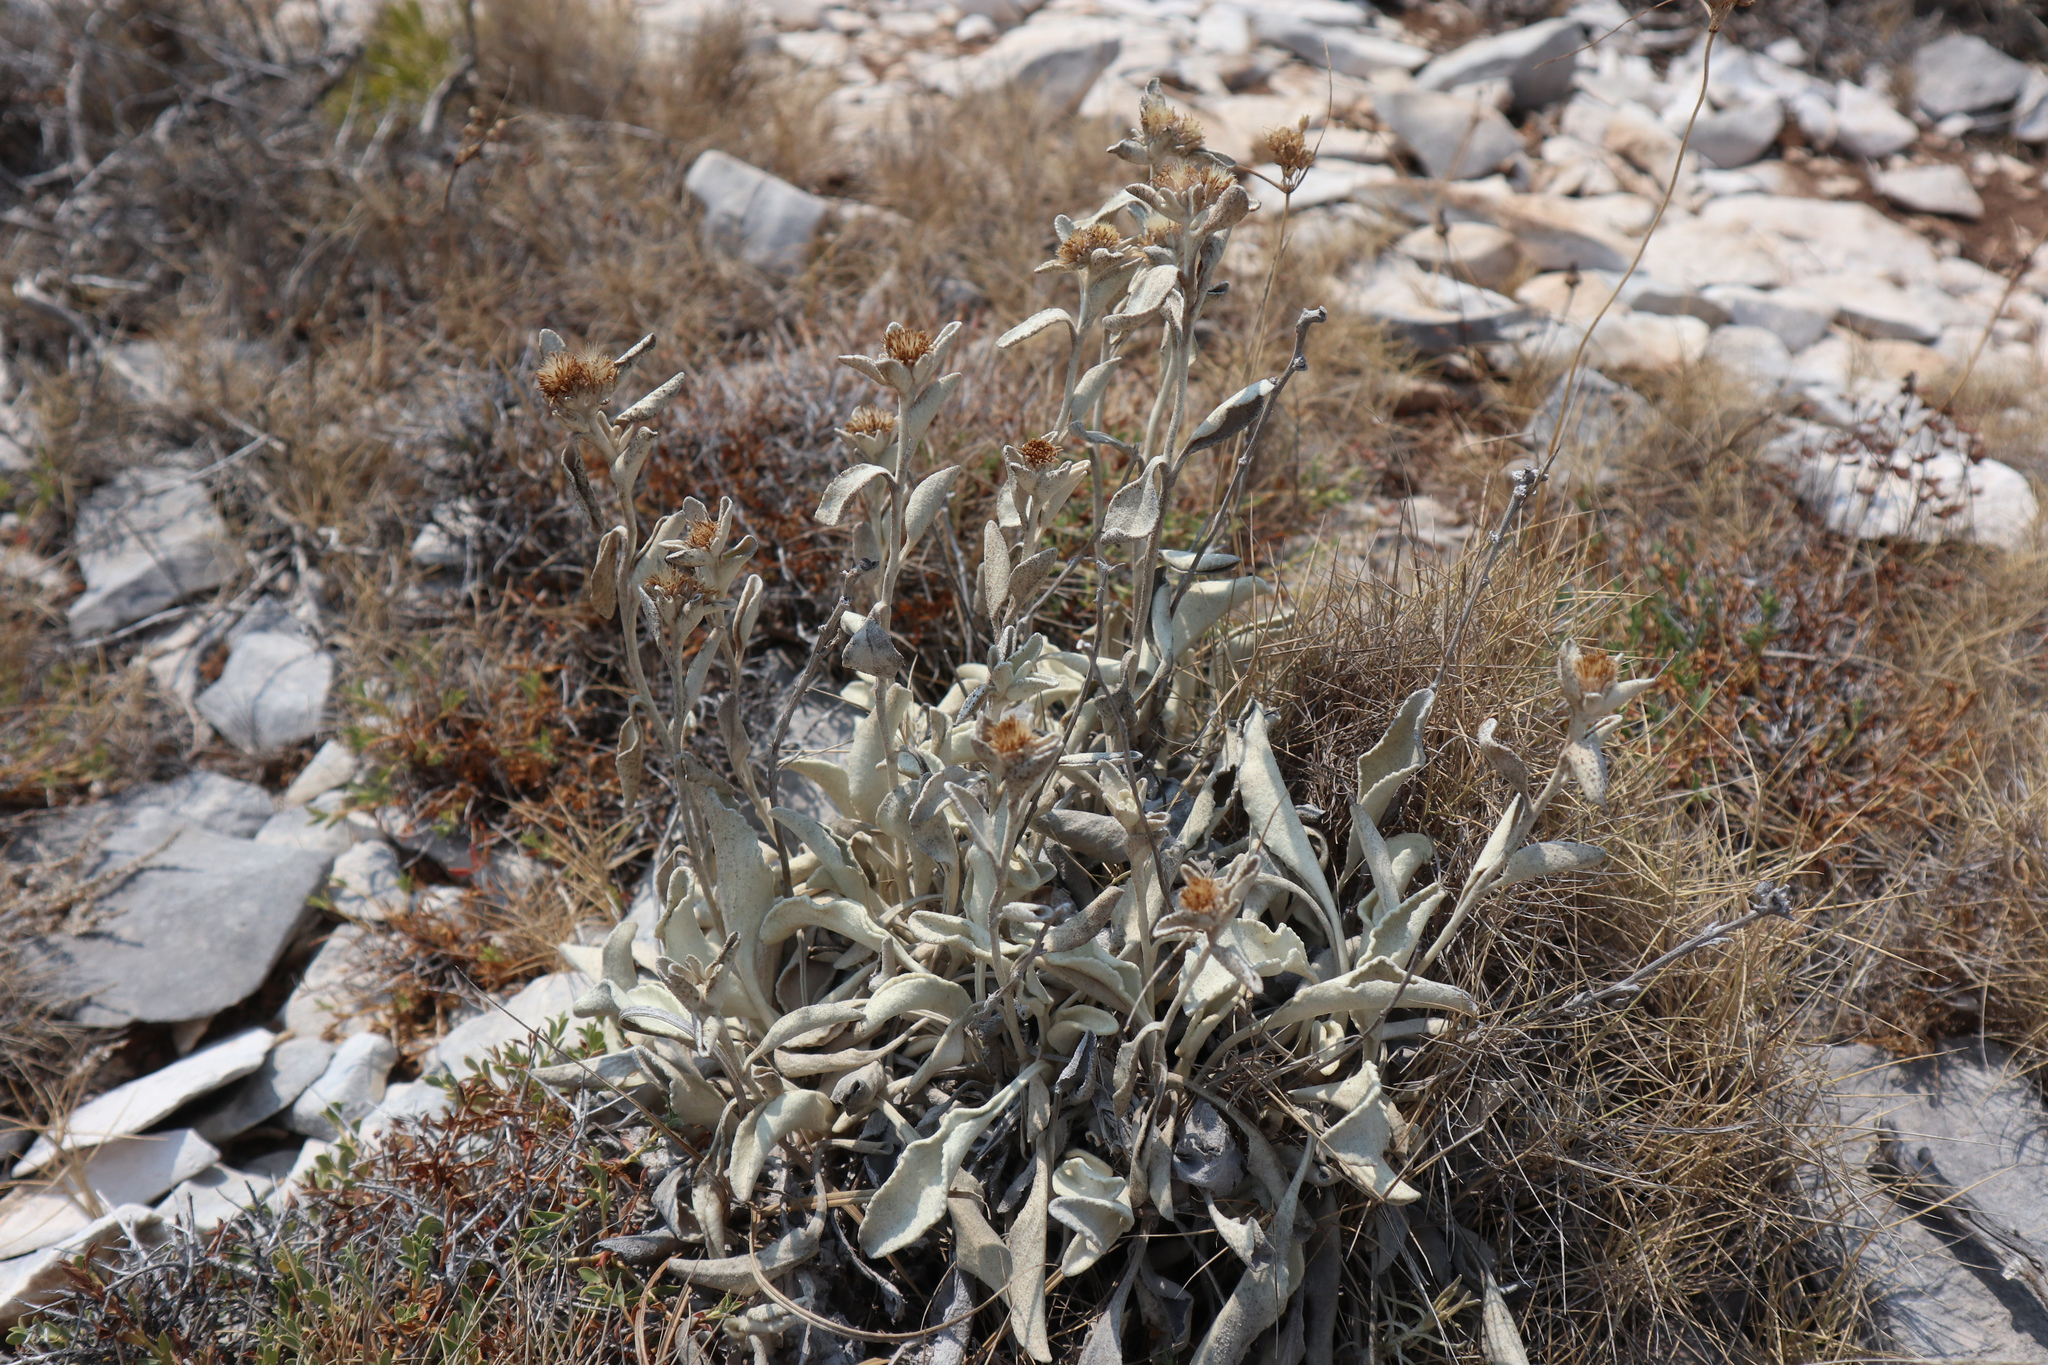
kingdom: Plantae
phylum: Tracheophyta
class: Magnoliopsida
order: Asterales
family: Asteraceae
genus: Pentanema
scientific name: Pentanema verbascifolium
